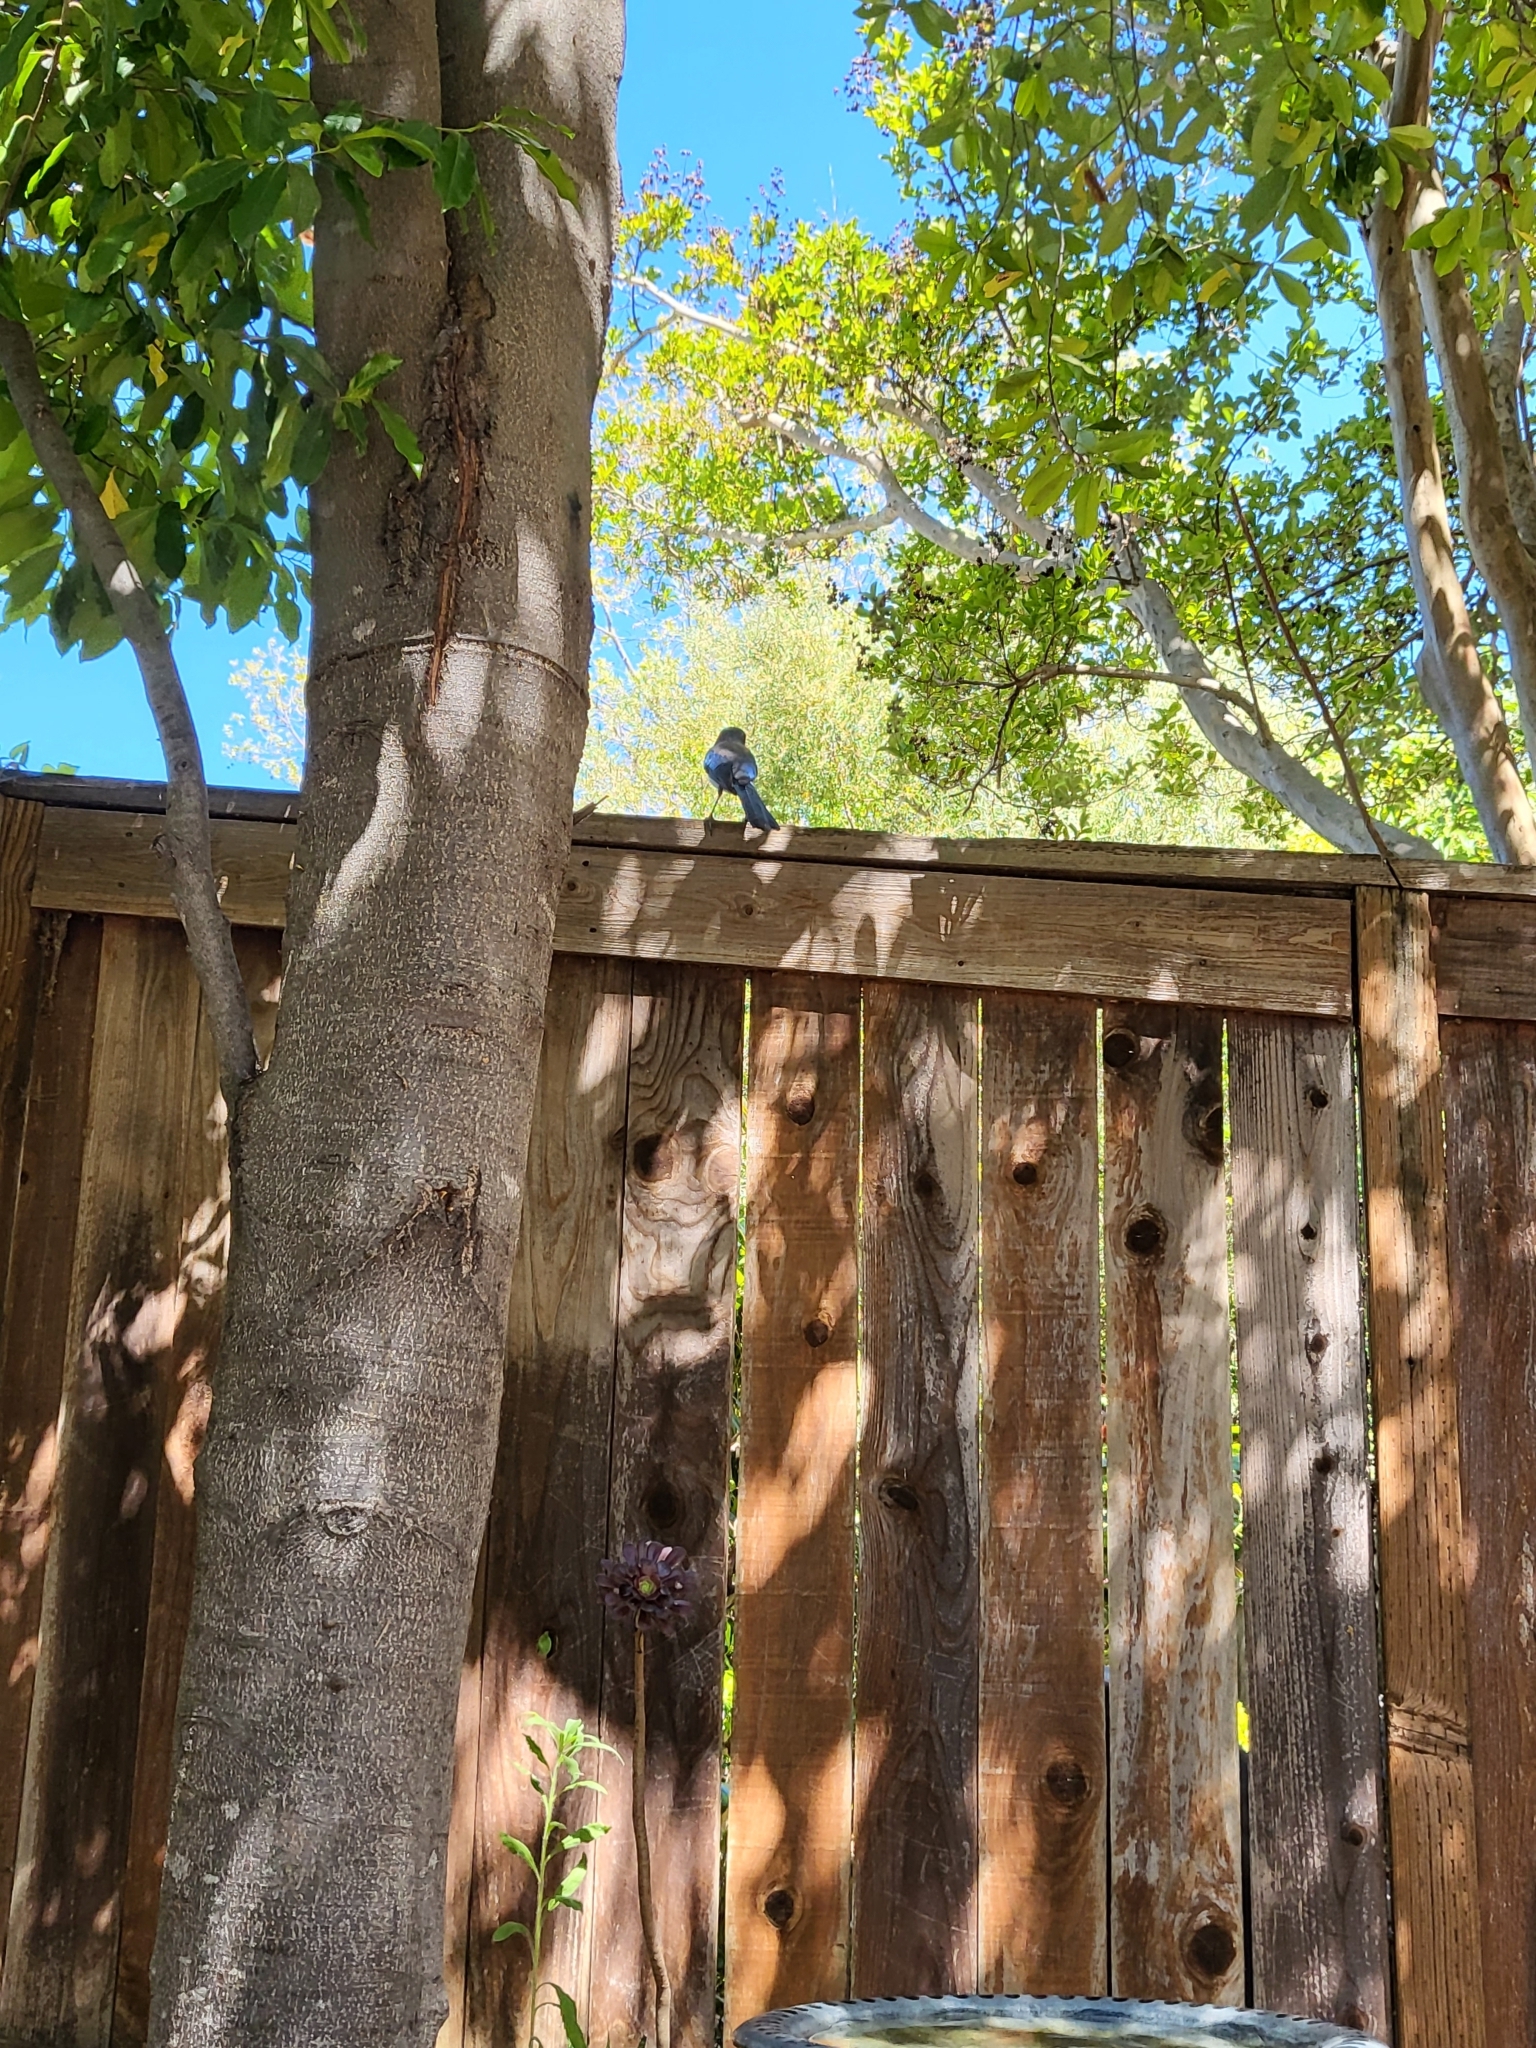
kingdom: Animalia
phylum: Chordata
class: Aves
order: Passeriformes
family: Corvidae
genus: Aphelocoma
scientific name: Aphelocoma californica
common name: California scrub-jay
